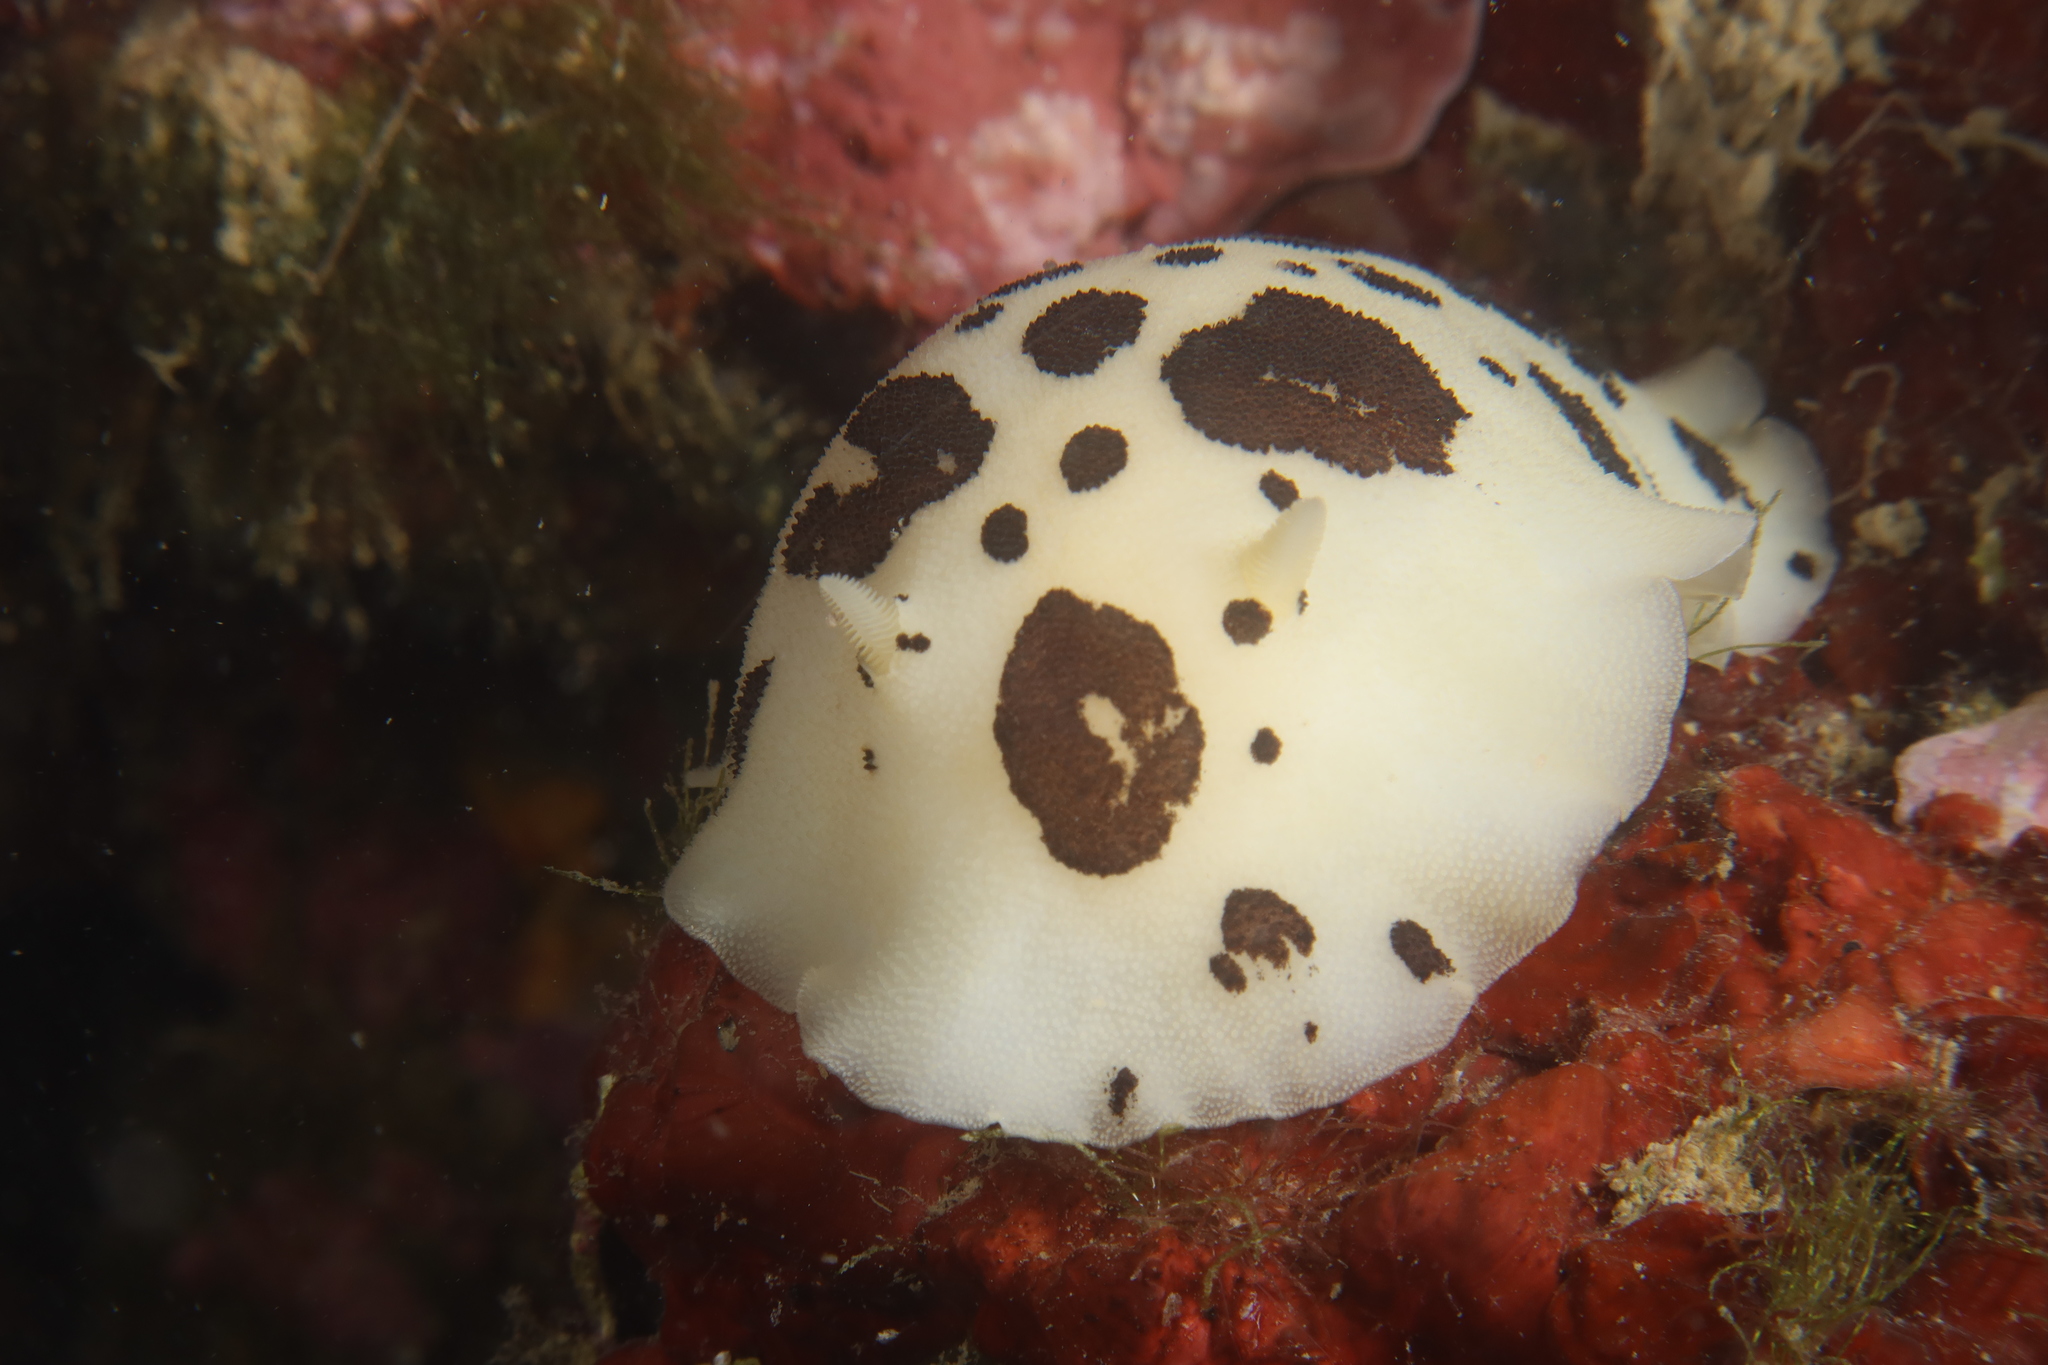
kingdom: Animalia
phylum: Mollusca
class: Gastropoda
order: Nudibranchia
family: Discodorididae
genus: Peltodoris
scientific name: Peltodoris atromaculata
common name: Swiss cow nudibranch
